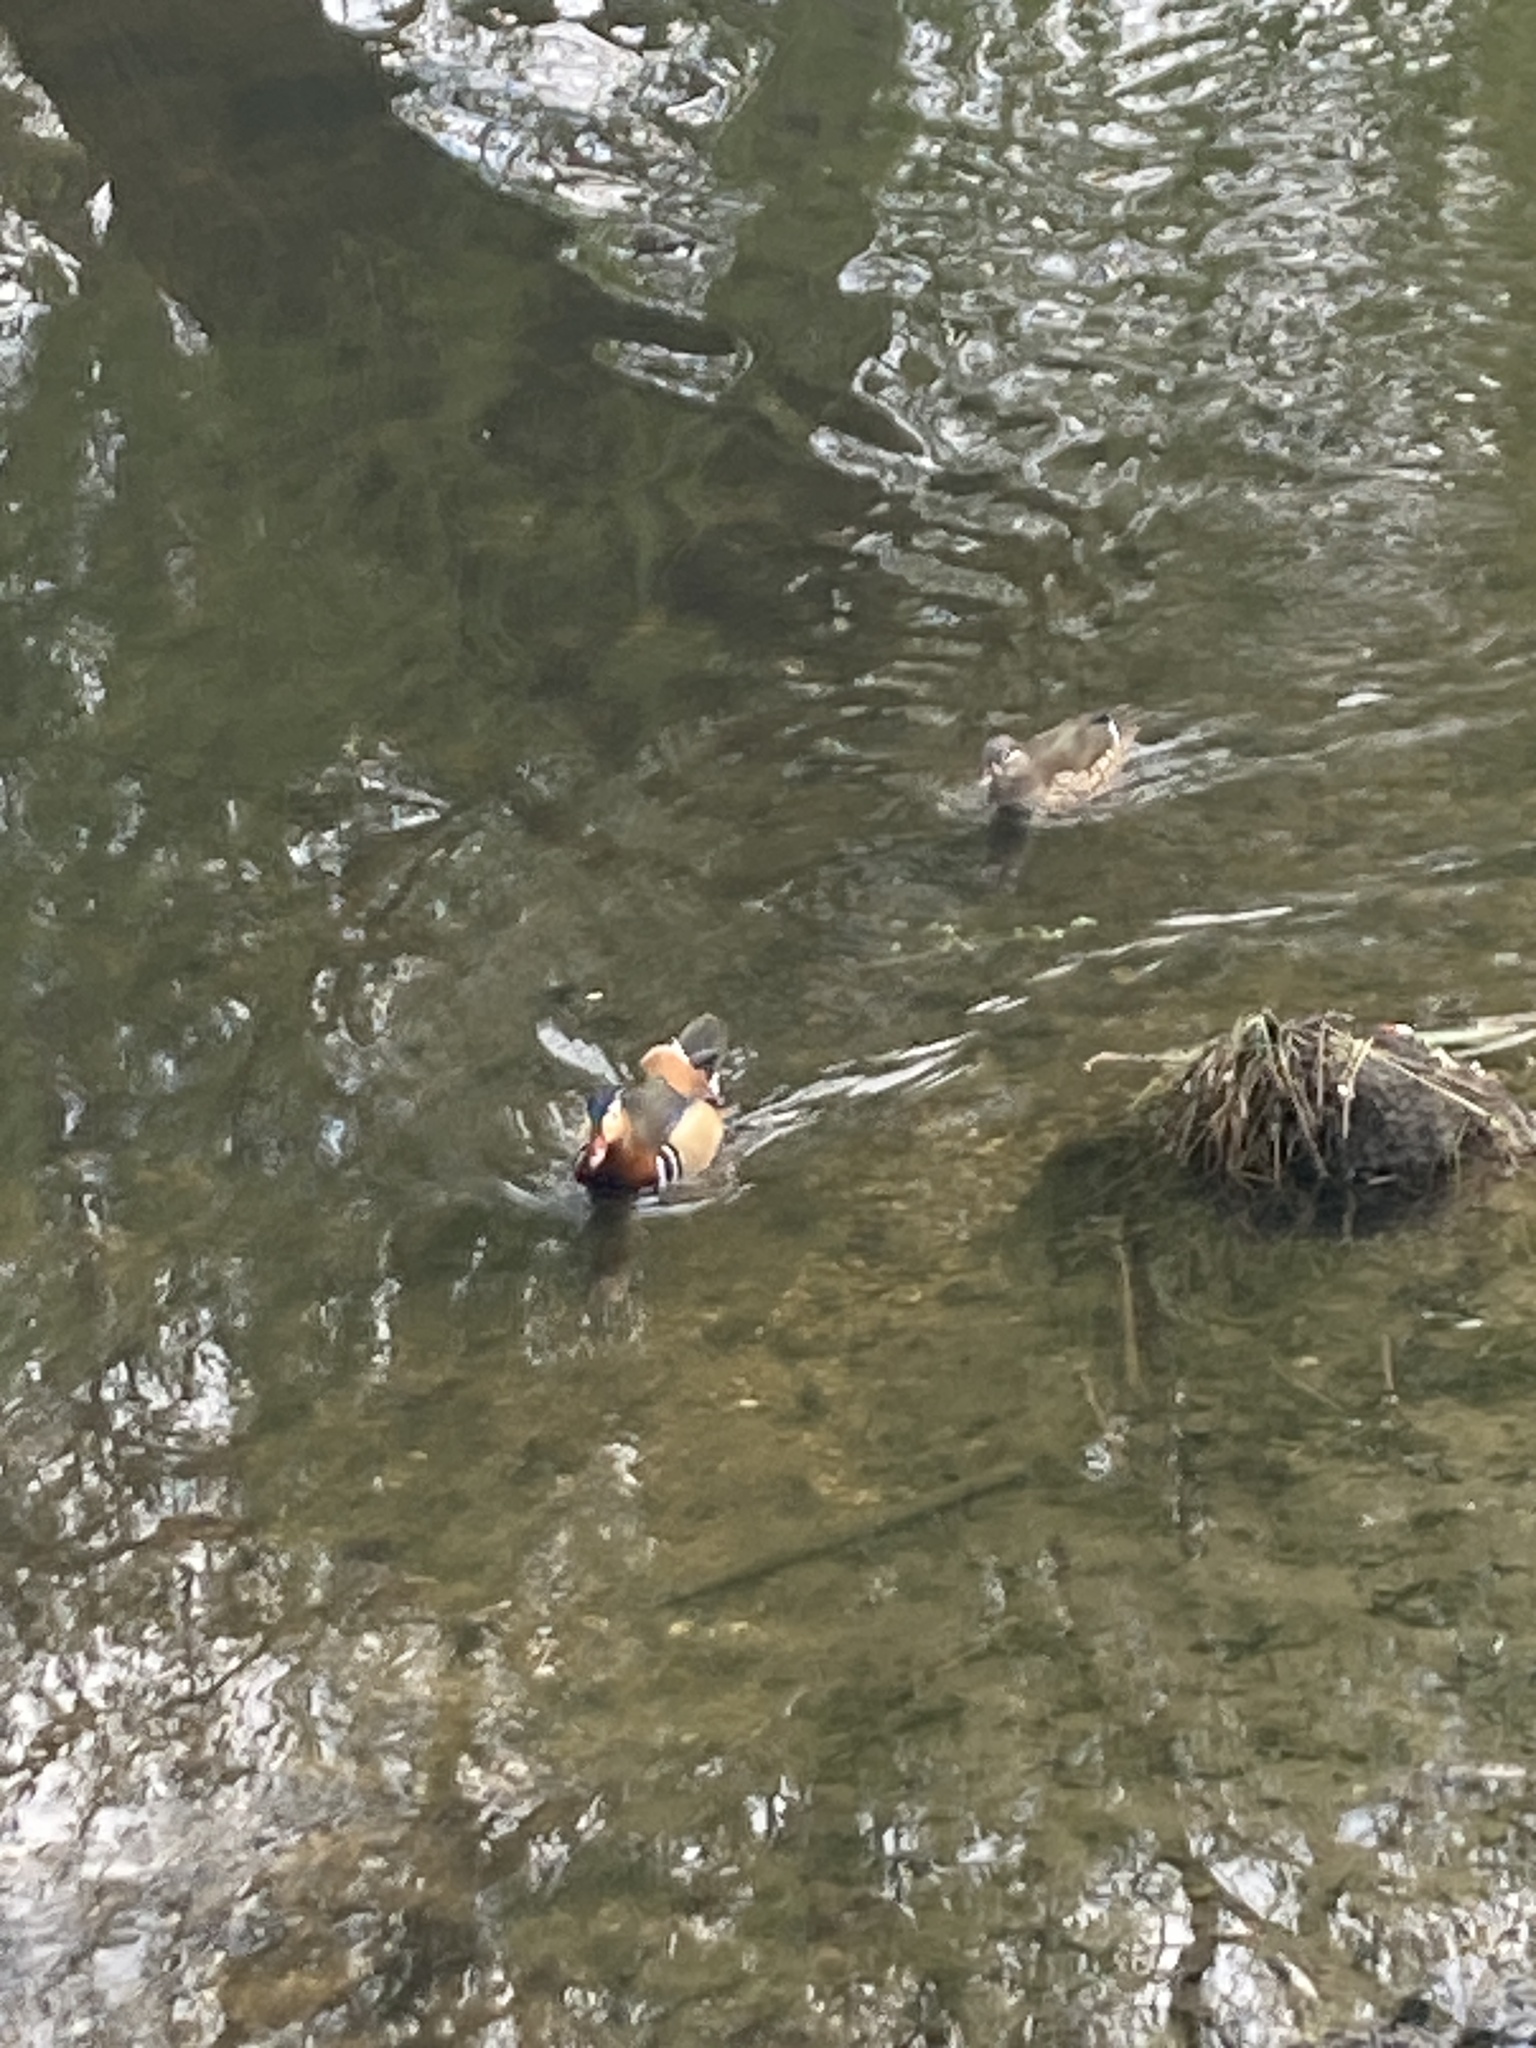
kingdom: Animalia
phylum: Chordata
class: Aves
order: Anseriformes
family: Anatidae
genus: Aix
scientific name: Aix galericulata
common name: Mandarin duck
